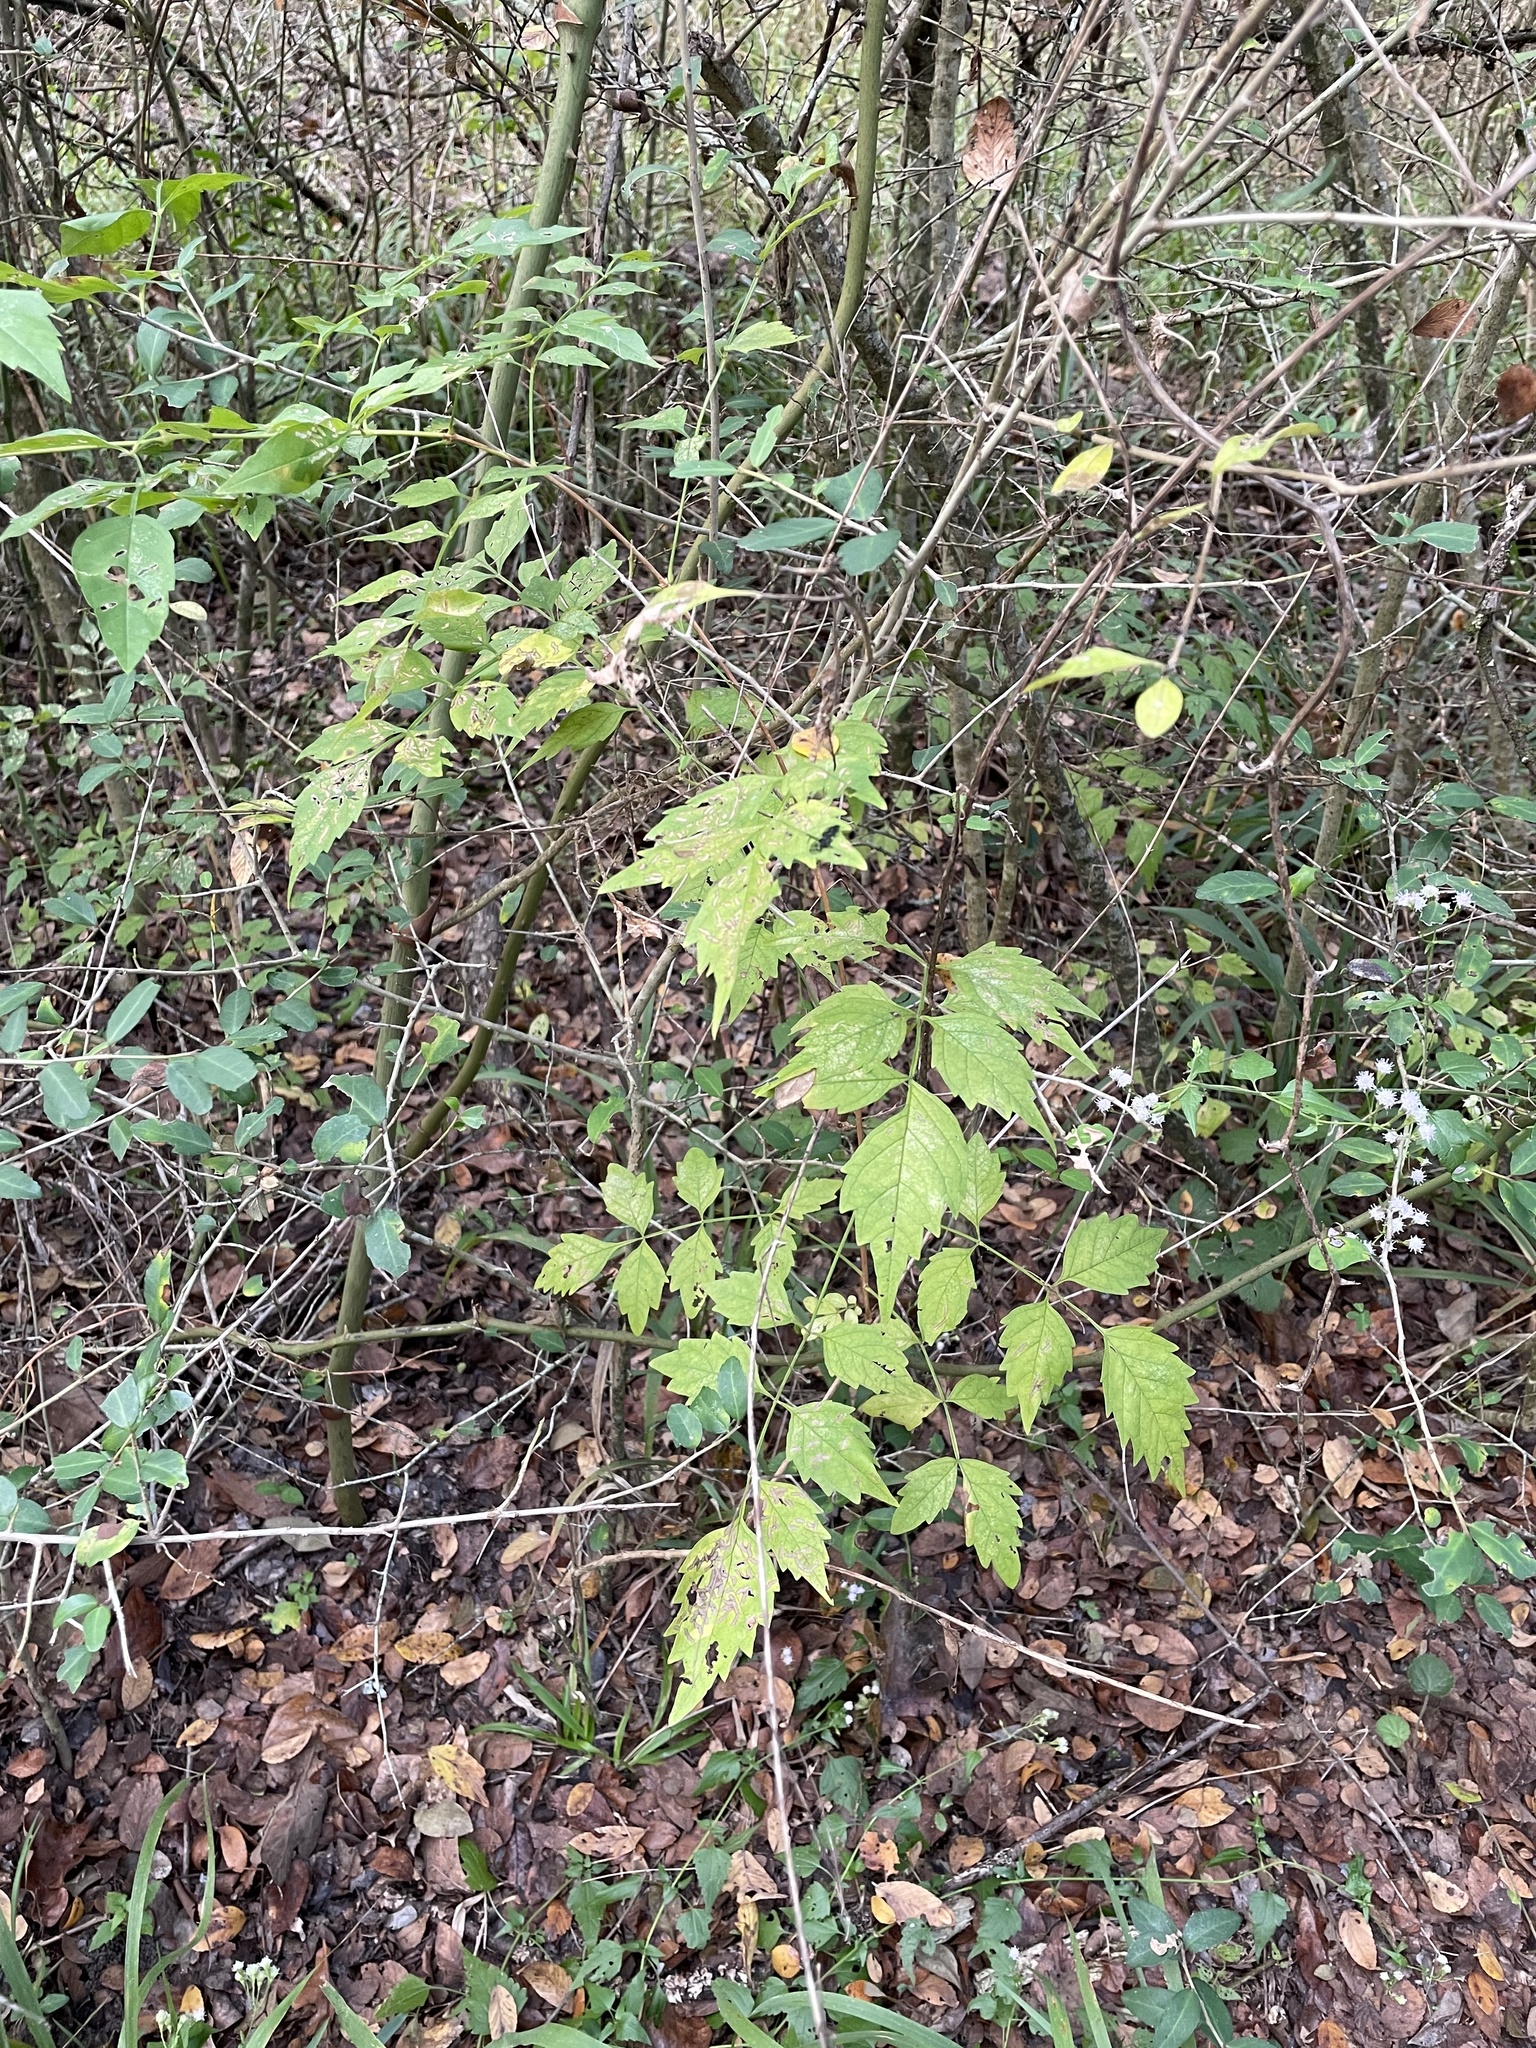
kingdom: Plantae
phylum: Tracheophyta
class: Magnoliopsida
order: Lamiales
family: Bignoniaceae
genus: Campsis
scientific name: Campsis radicans
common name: Trumpet-creeper
